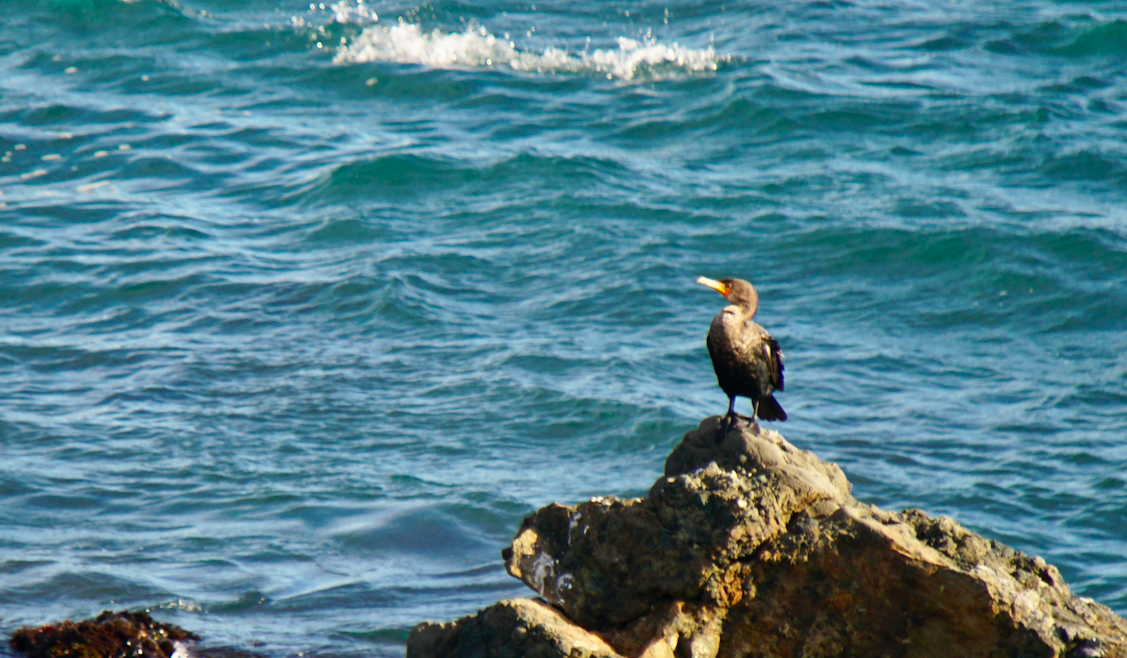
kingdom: Animalia
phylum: Chordata
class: Aves
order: Suliformes
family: Phalacrocoracidae
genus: Phalacrocorax
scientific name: Phalacrocorax auritus
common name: Double-crested cormorant
